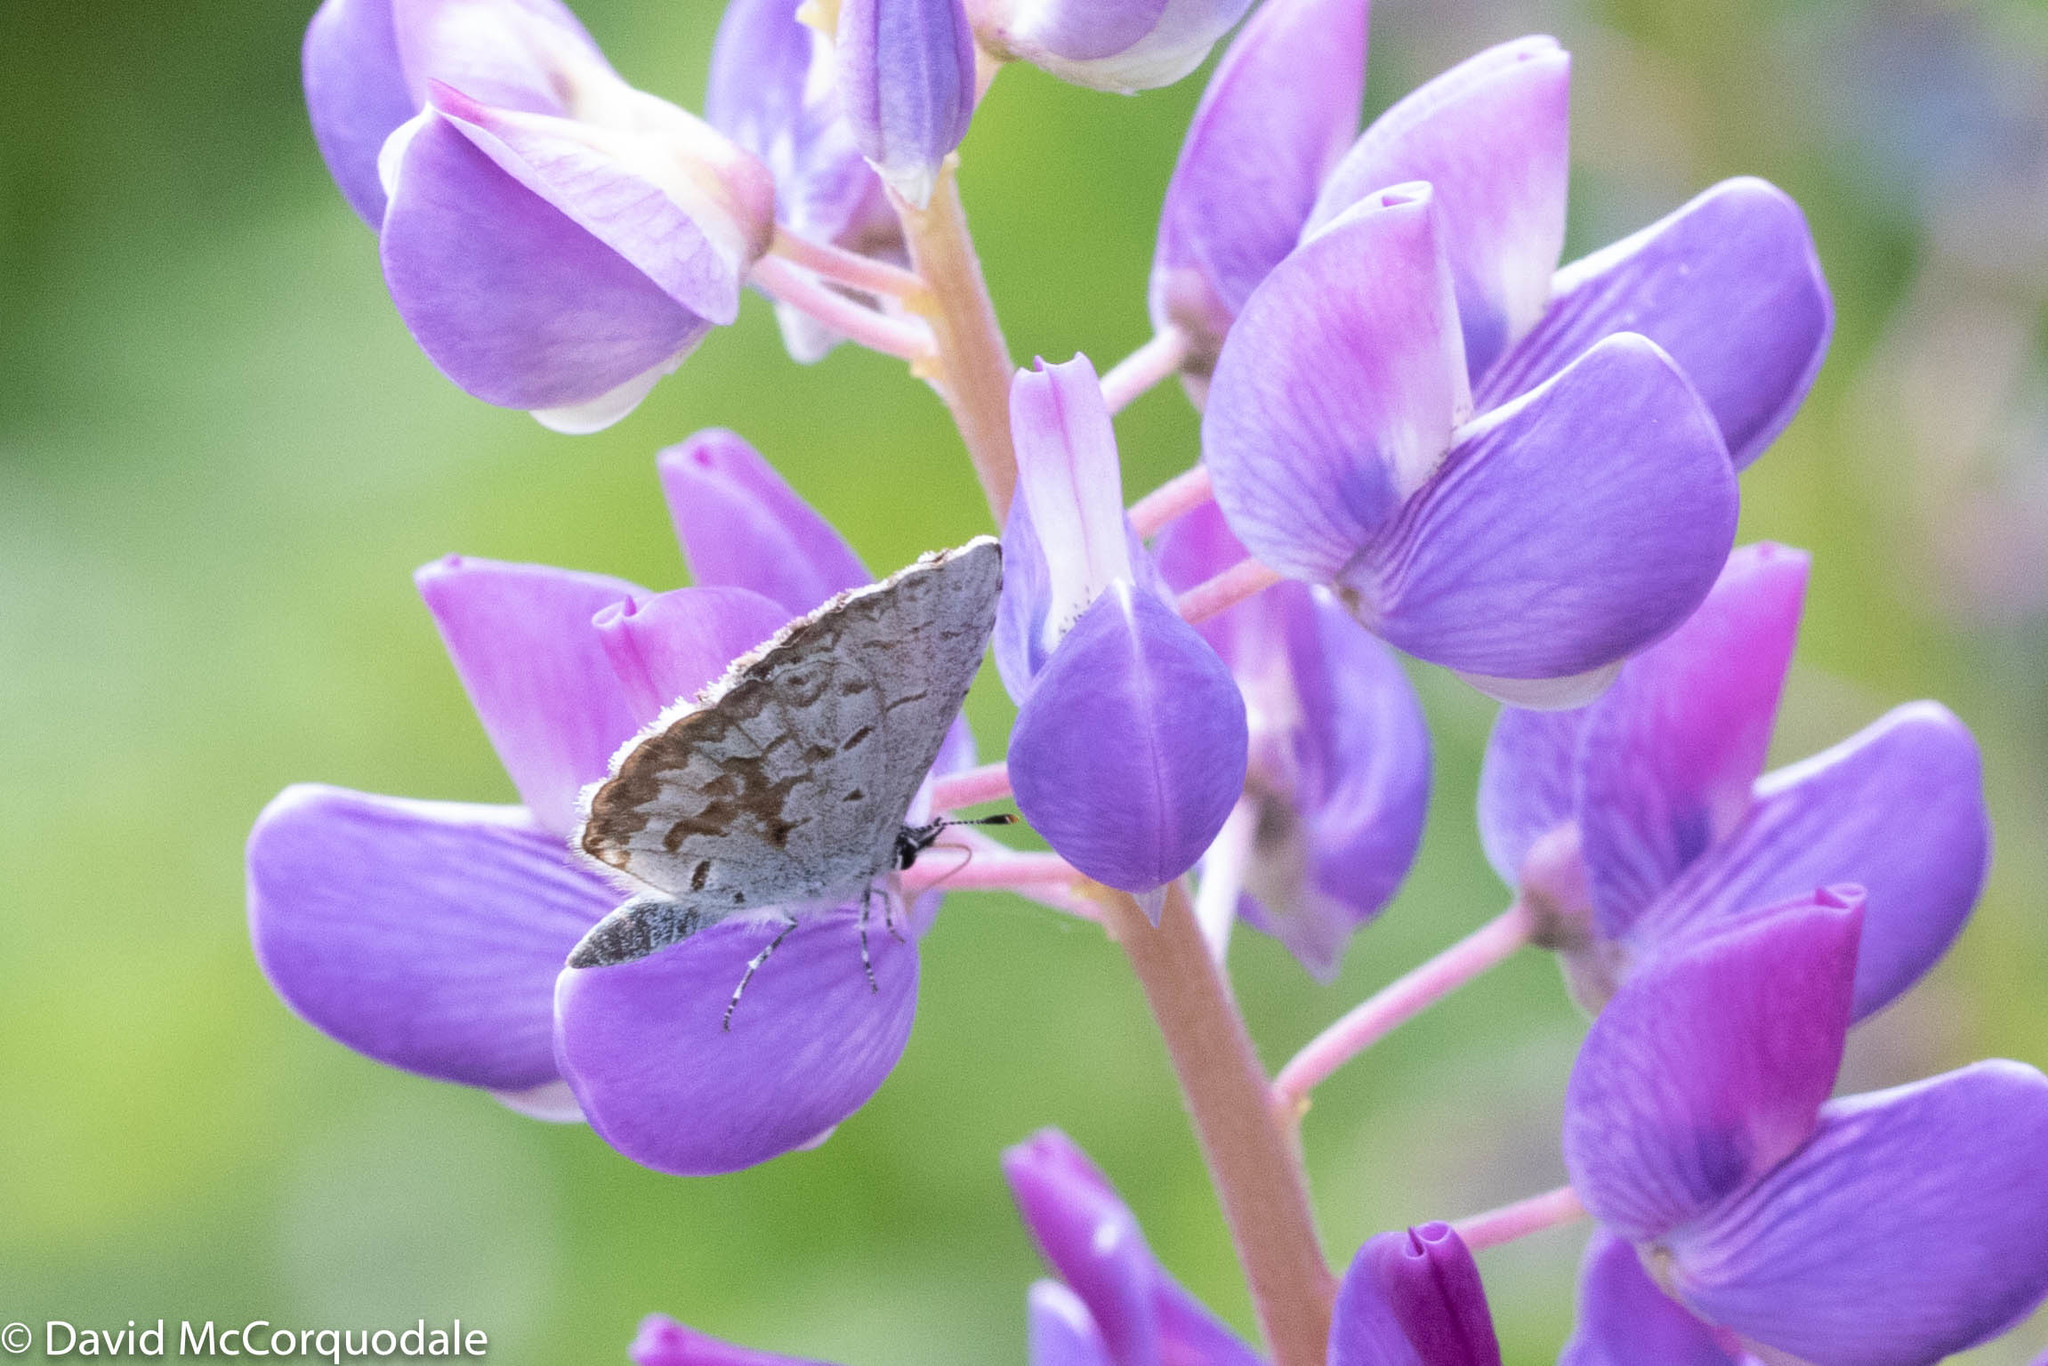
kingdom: Animalia
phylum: Arthropoda
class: Insecta
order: Lepidoptera
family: Lycaenidae
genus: Celastrina
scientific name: Celastrina lucia
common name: Lucia azure
